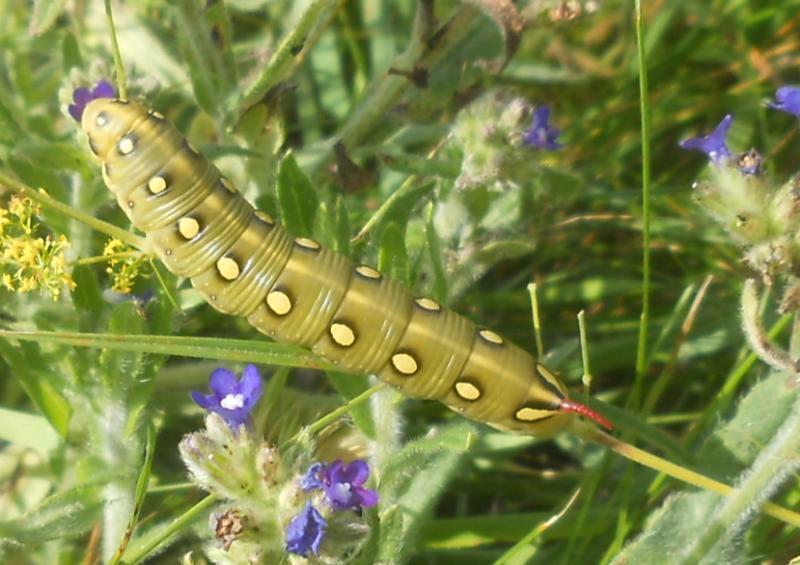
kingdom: Animalia
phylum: Arthropoda
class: Insecta
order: Lepidoptera
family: Sphingidae
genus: Hyles
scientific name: Hyles gallii
